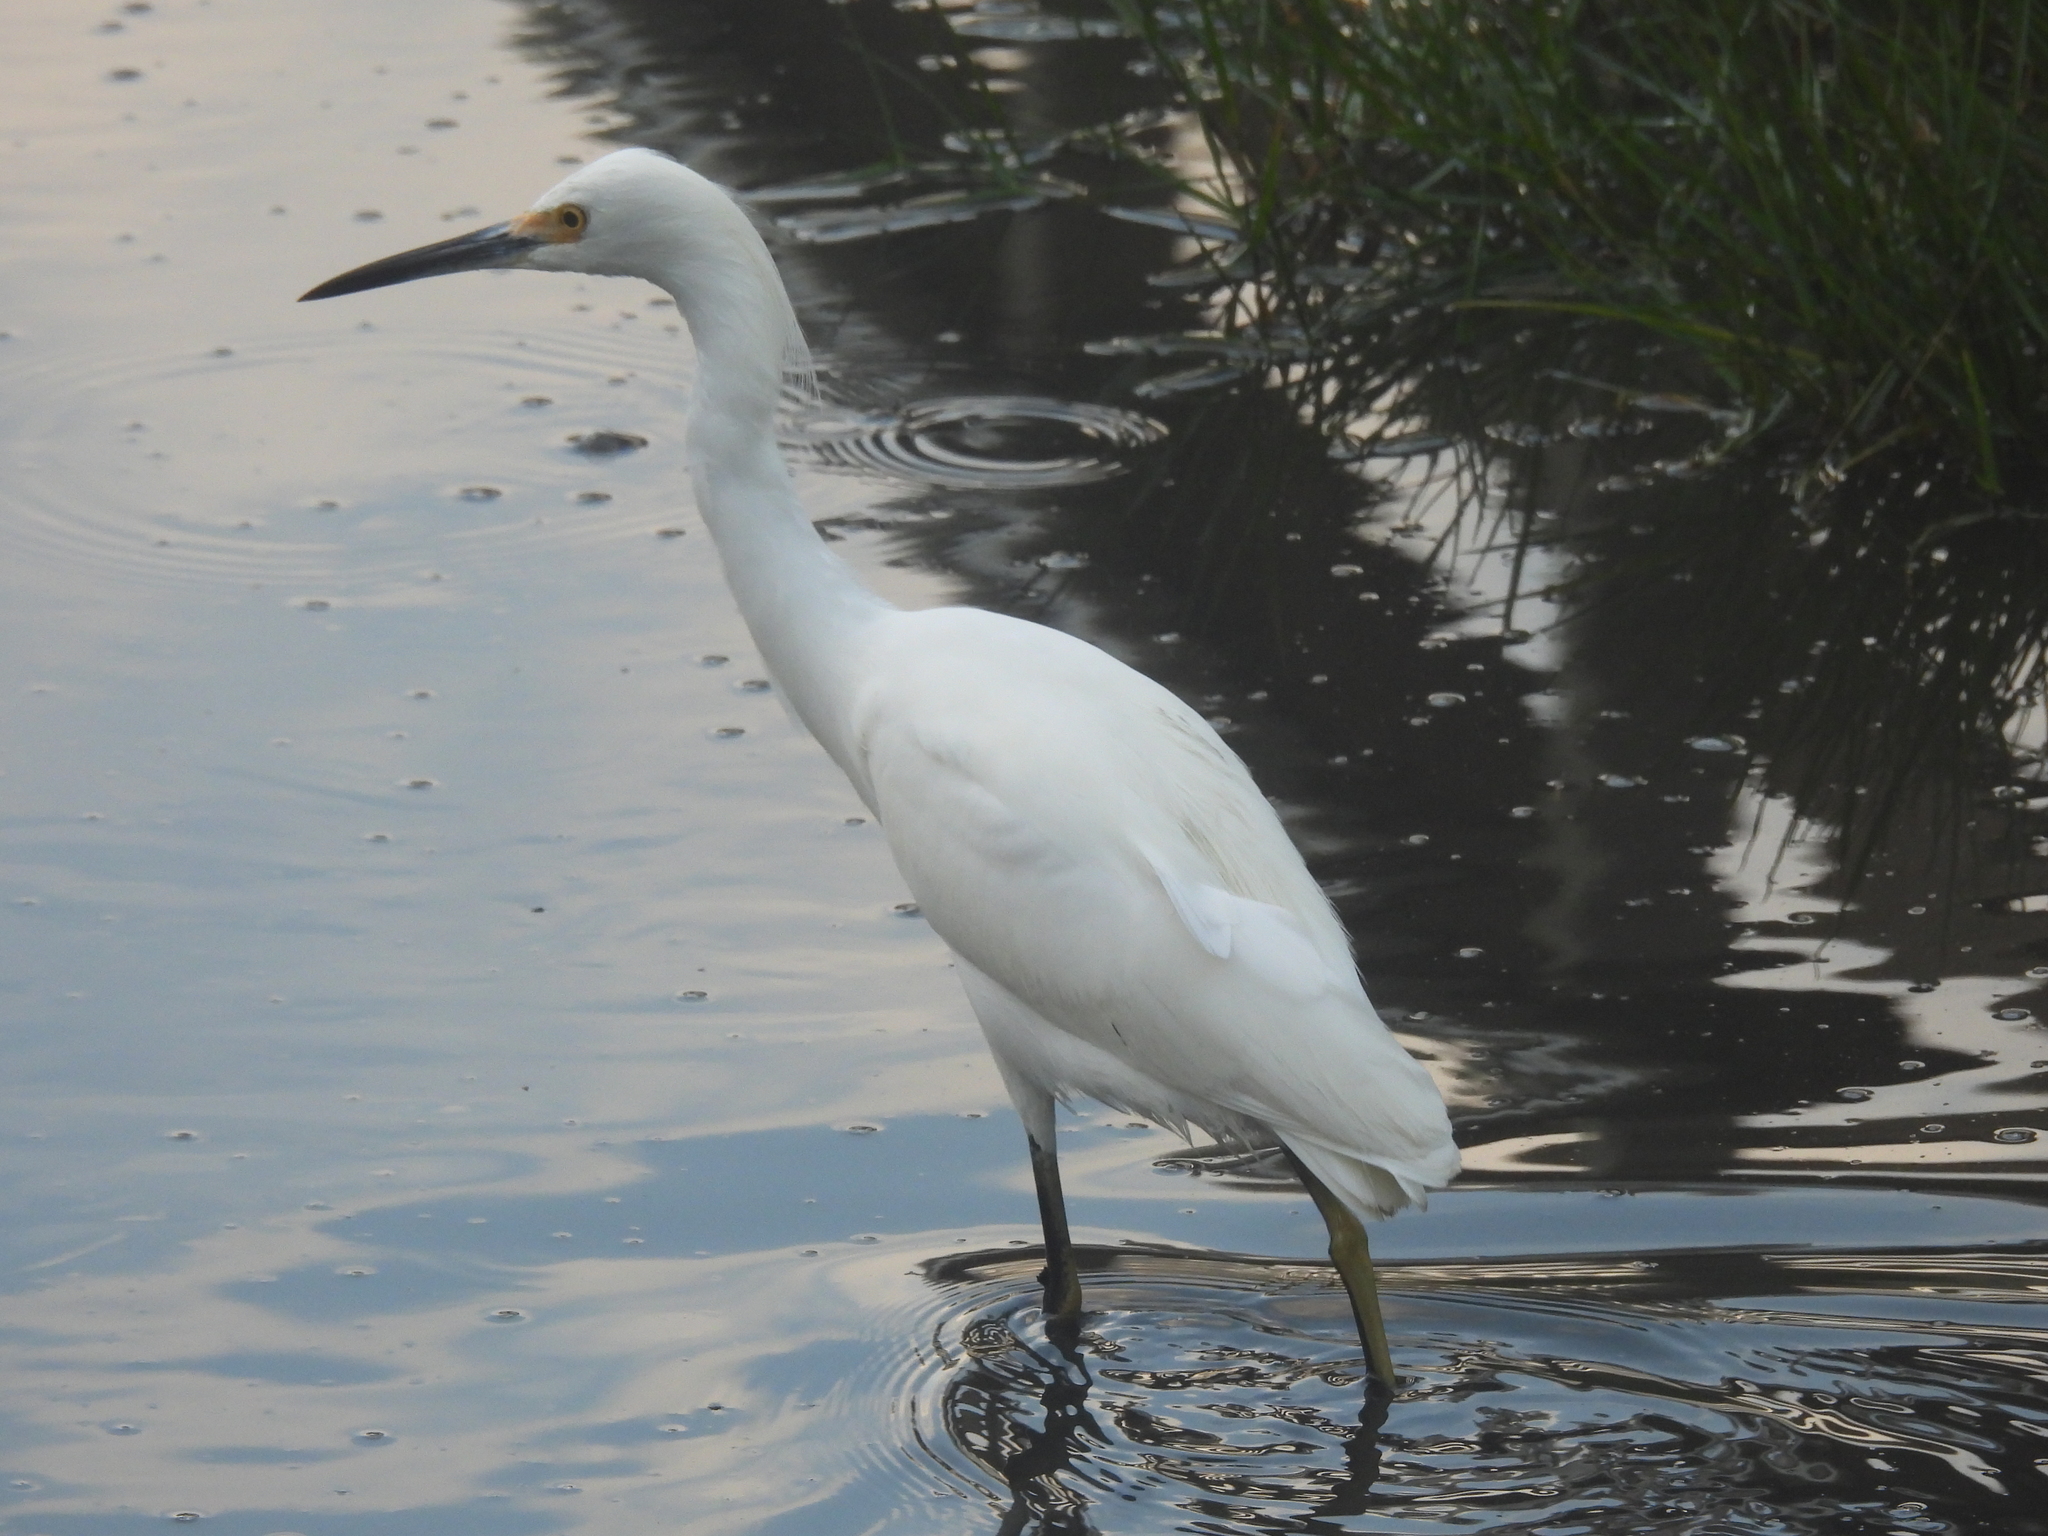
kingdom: Animalia
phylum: Chordata
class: Aves
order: Pelecaniformes
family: Ardeidae
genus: Egretta
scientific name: Egretta thula
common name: Snowy egret
